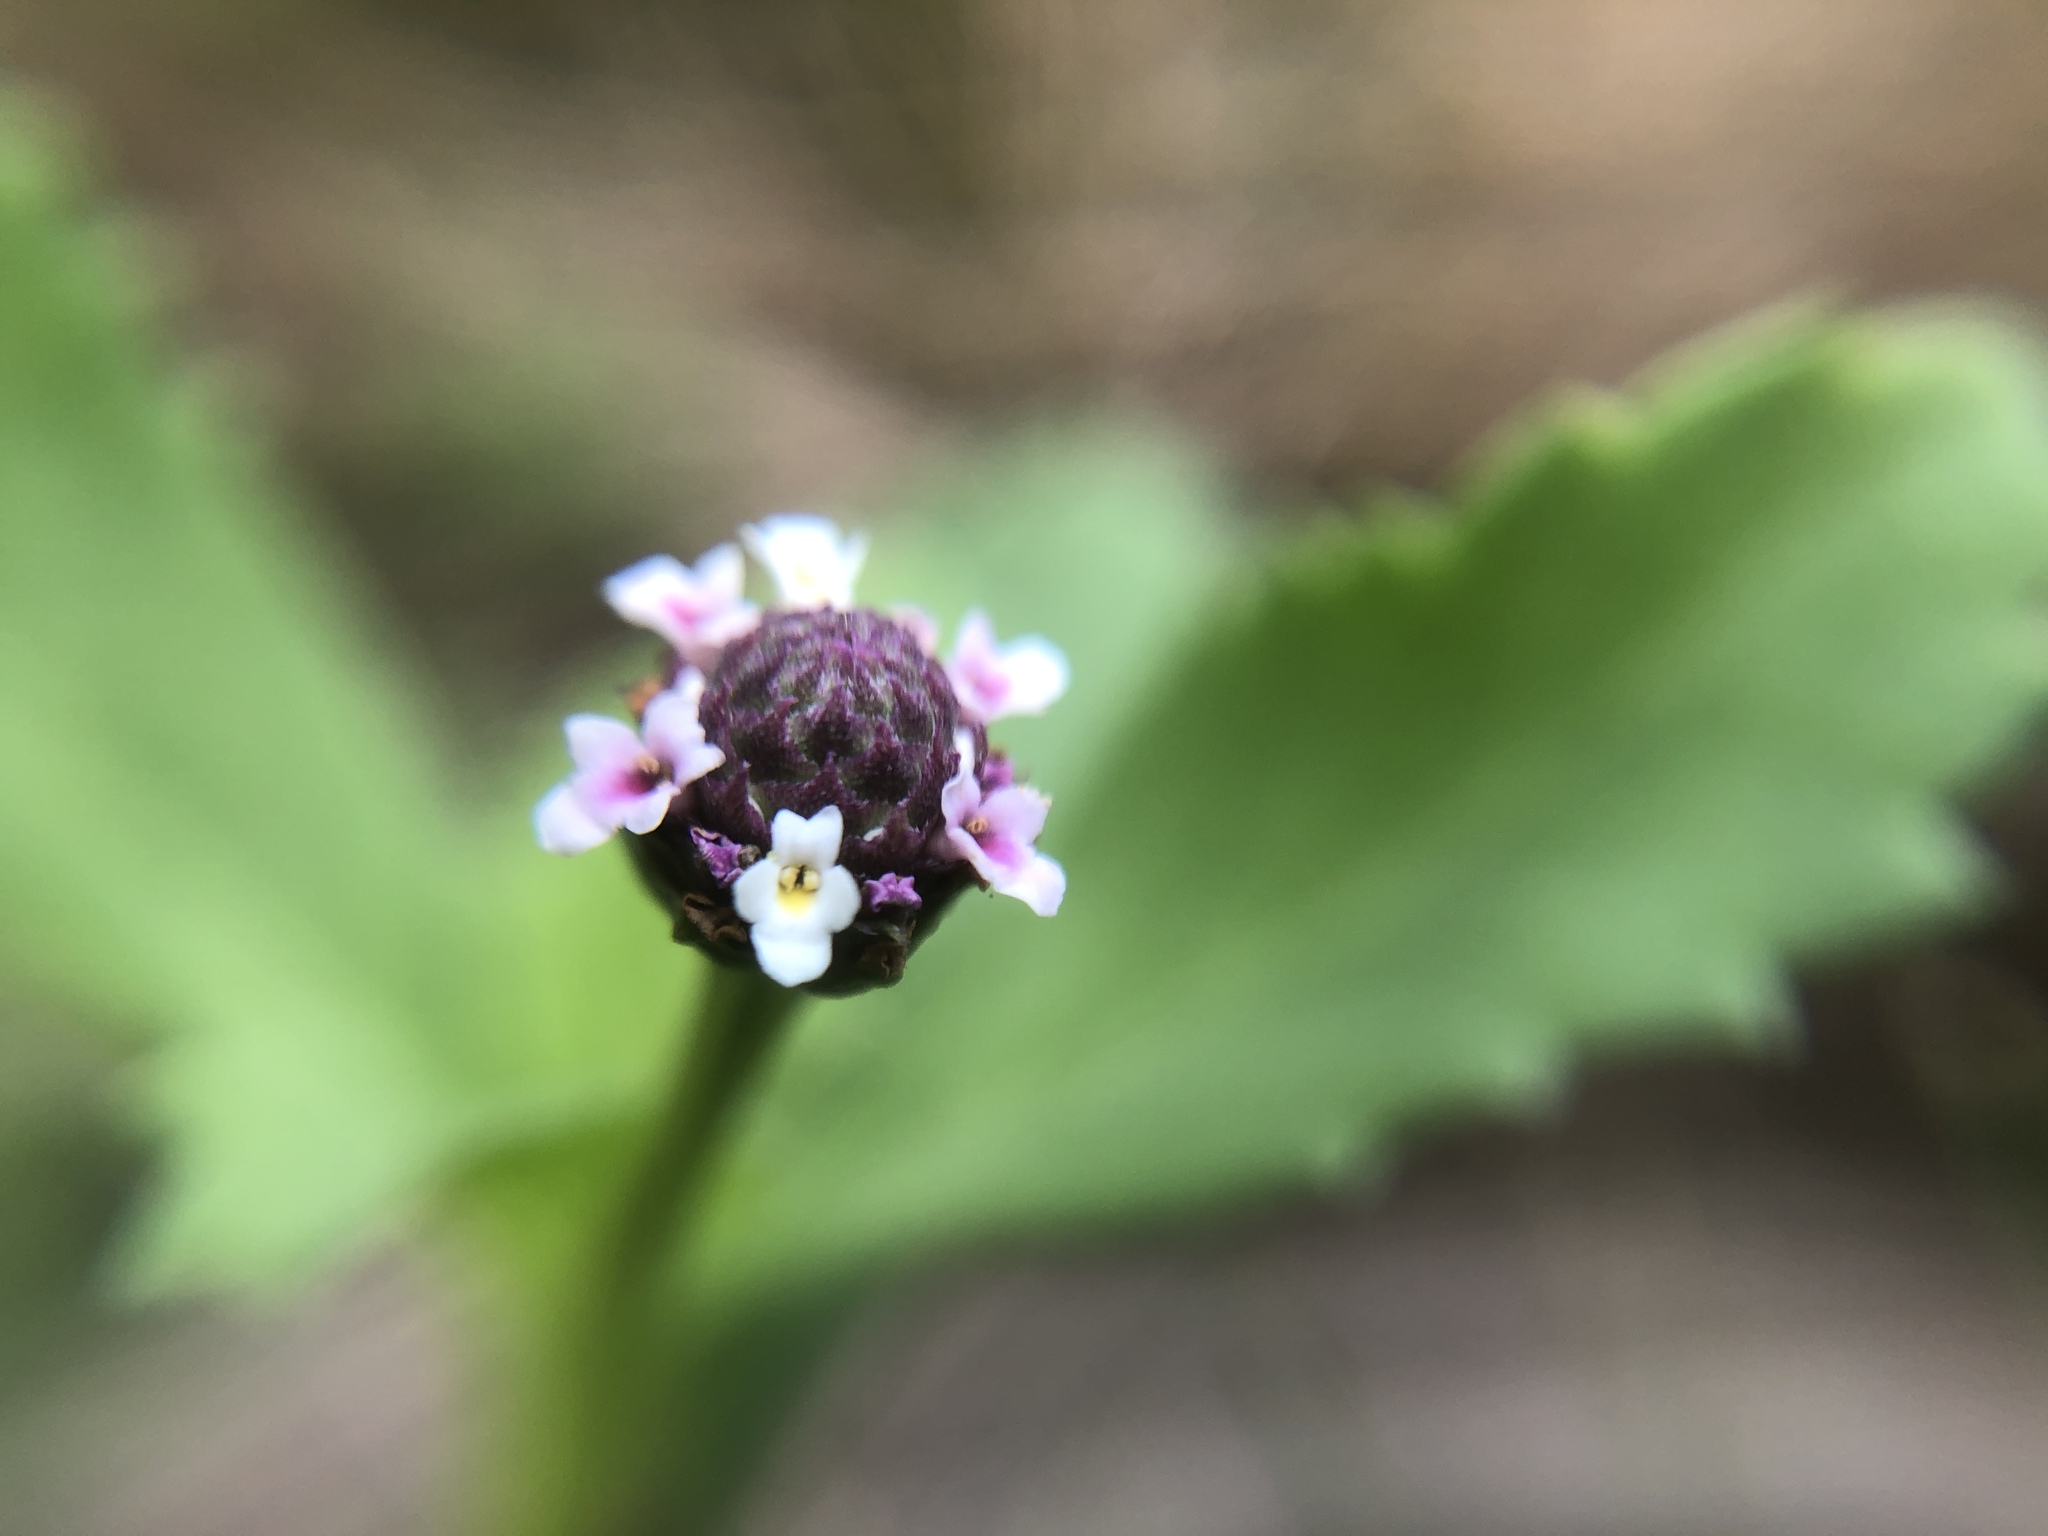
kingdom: Plantae
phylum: Tracheophyta
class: Magnoliopsida
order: Lamiales
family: Verbenaceae
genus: Phyla
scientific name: Phyla nodiflora
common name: Frogfruit
